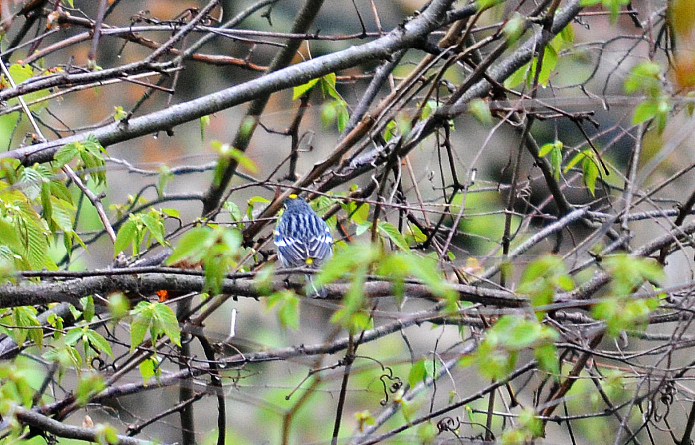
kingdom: Animalia
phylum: Chordata
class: Aves
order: Passeriformes
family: Parulidae
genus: Setophaga
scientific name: Setophaga coronata
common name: Myrtle warbler
